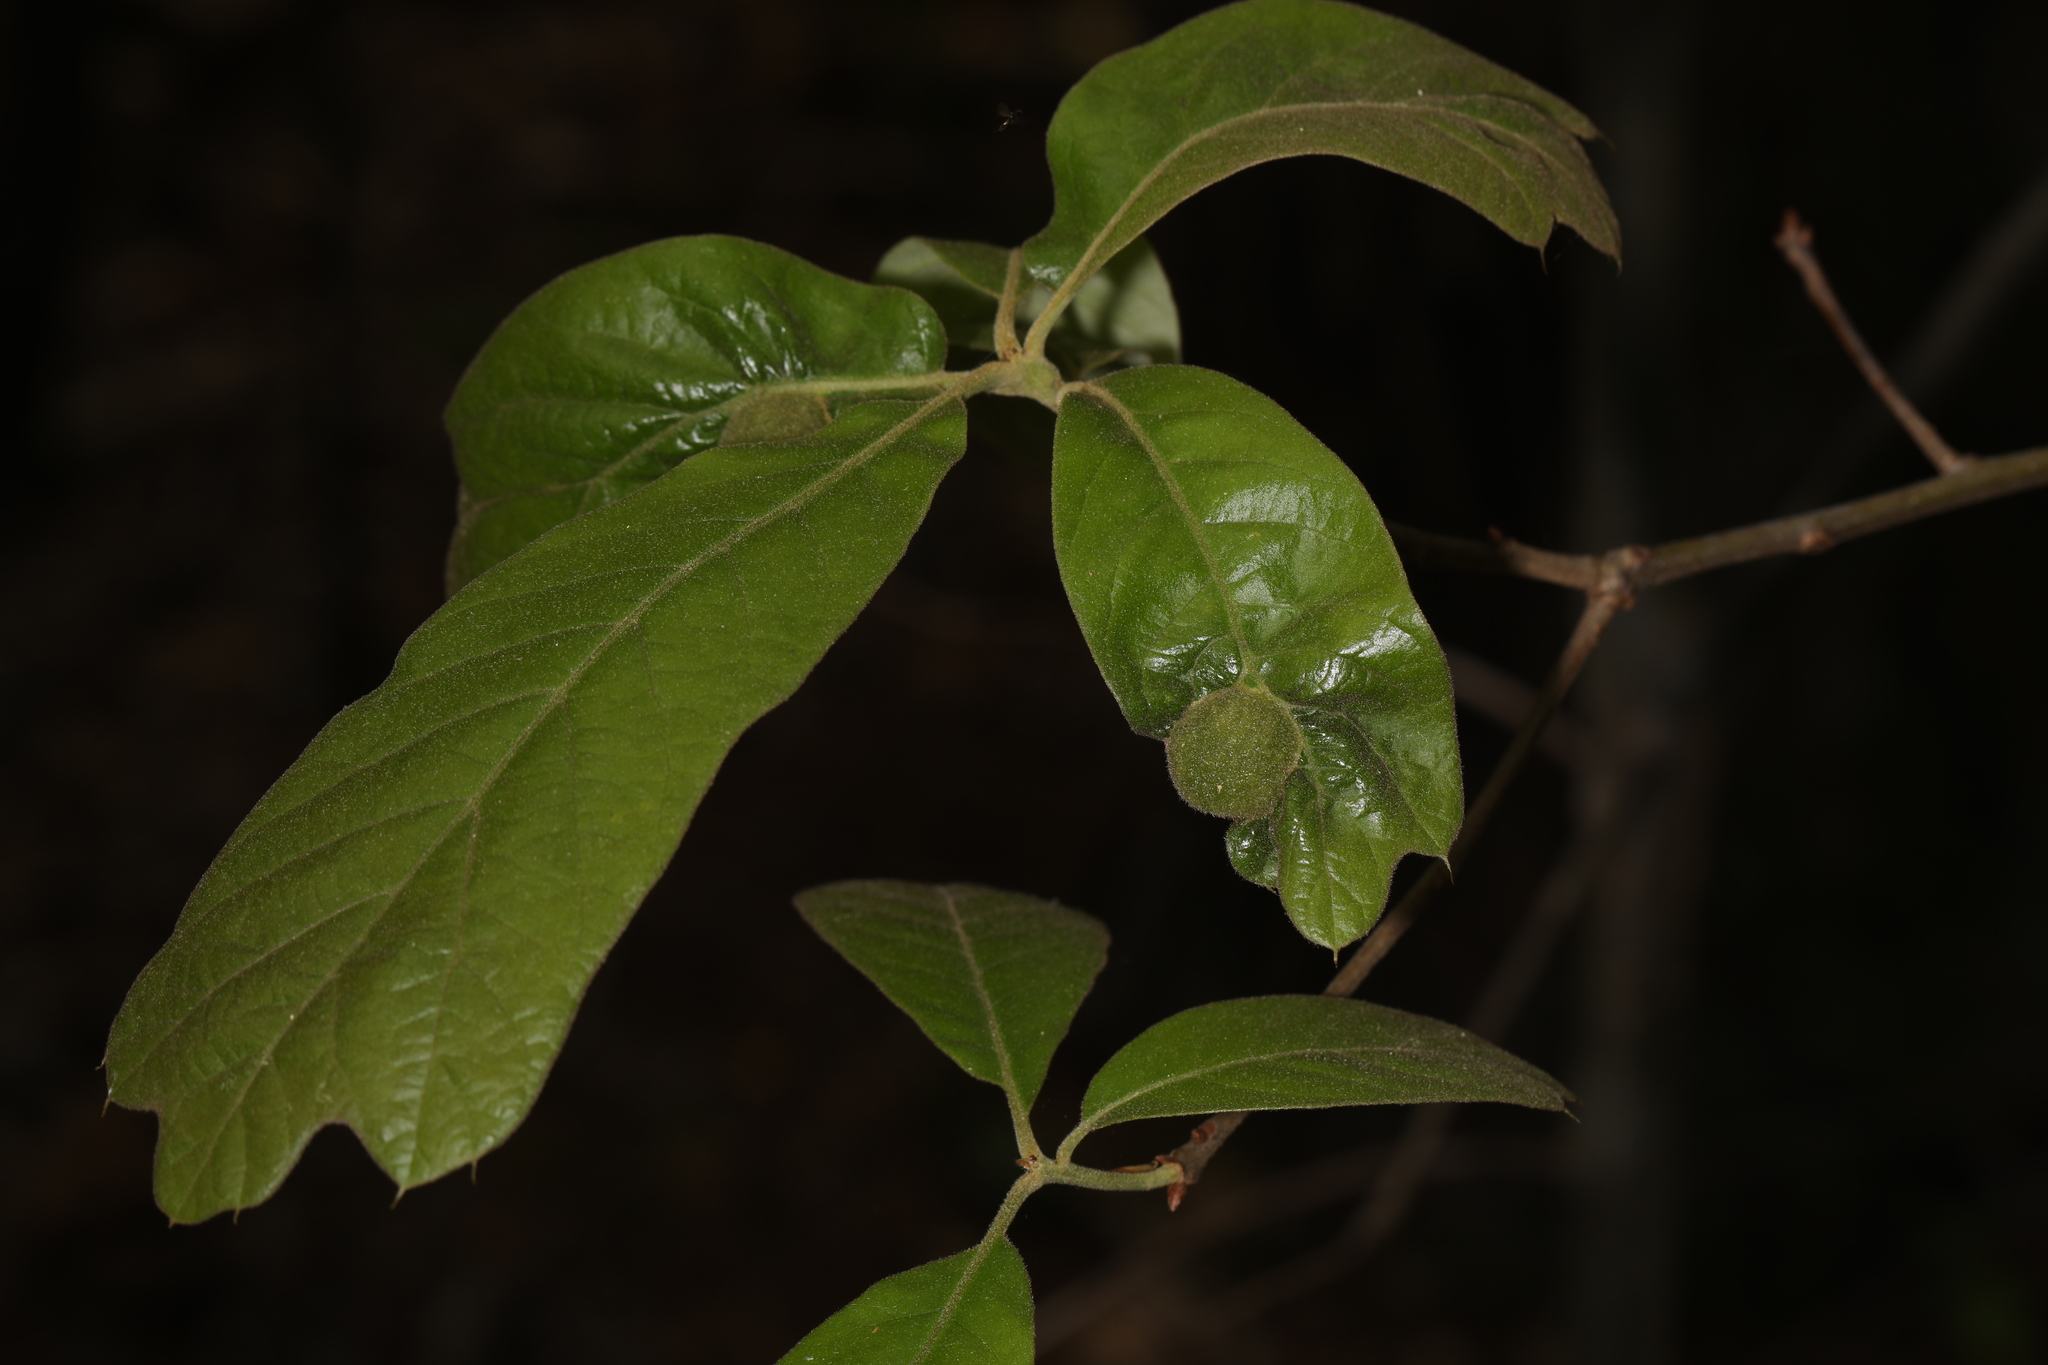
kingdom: Animalia
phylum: Arthropoda
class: Insecta
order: Hymenoptera
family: Cynipidae
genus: Dryocosmus
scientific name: Dryocosmus quercuspalustris
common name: Succulent oak gall wasp
